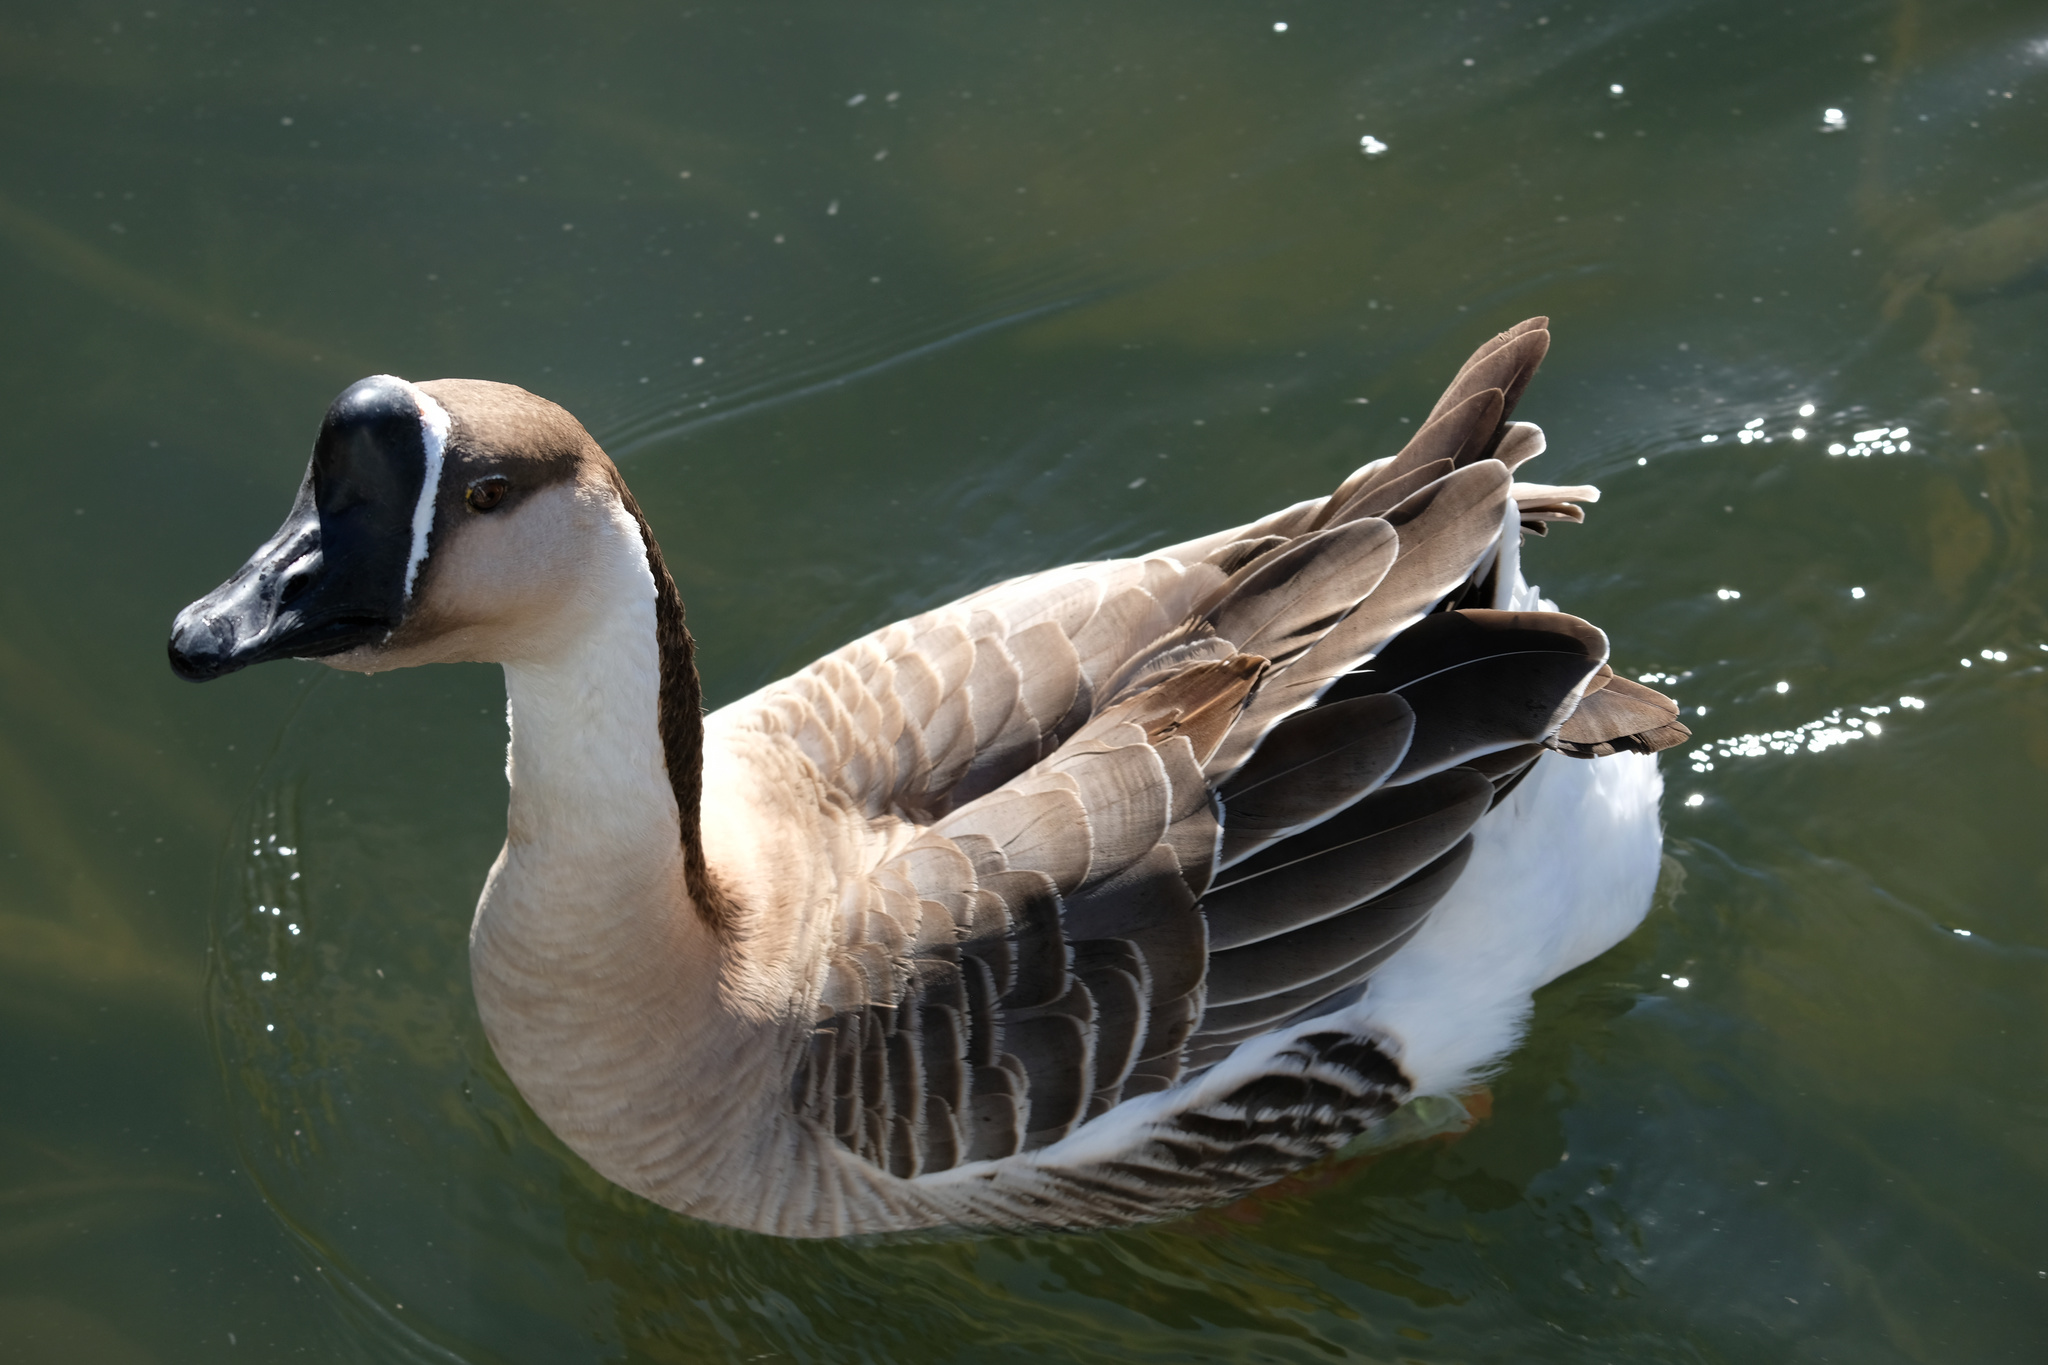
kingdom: Animalia
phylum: Chordata
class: Aves
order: Anseriformes
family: Anatidae
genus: Anser
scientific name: Anser cygnoides
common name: Swan goose
